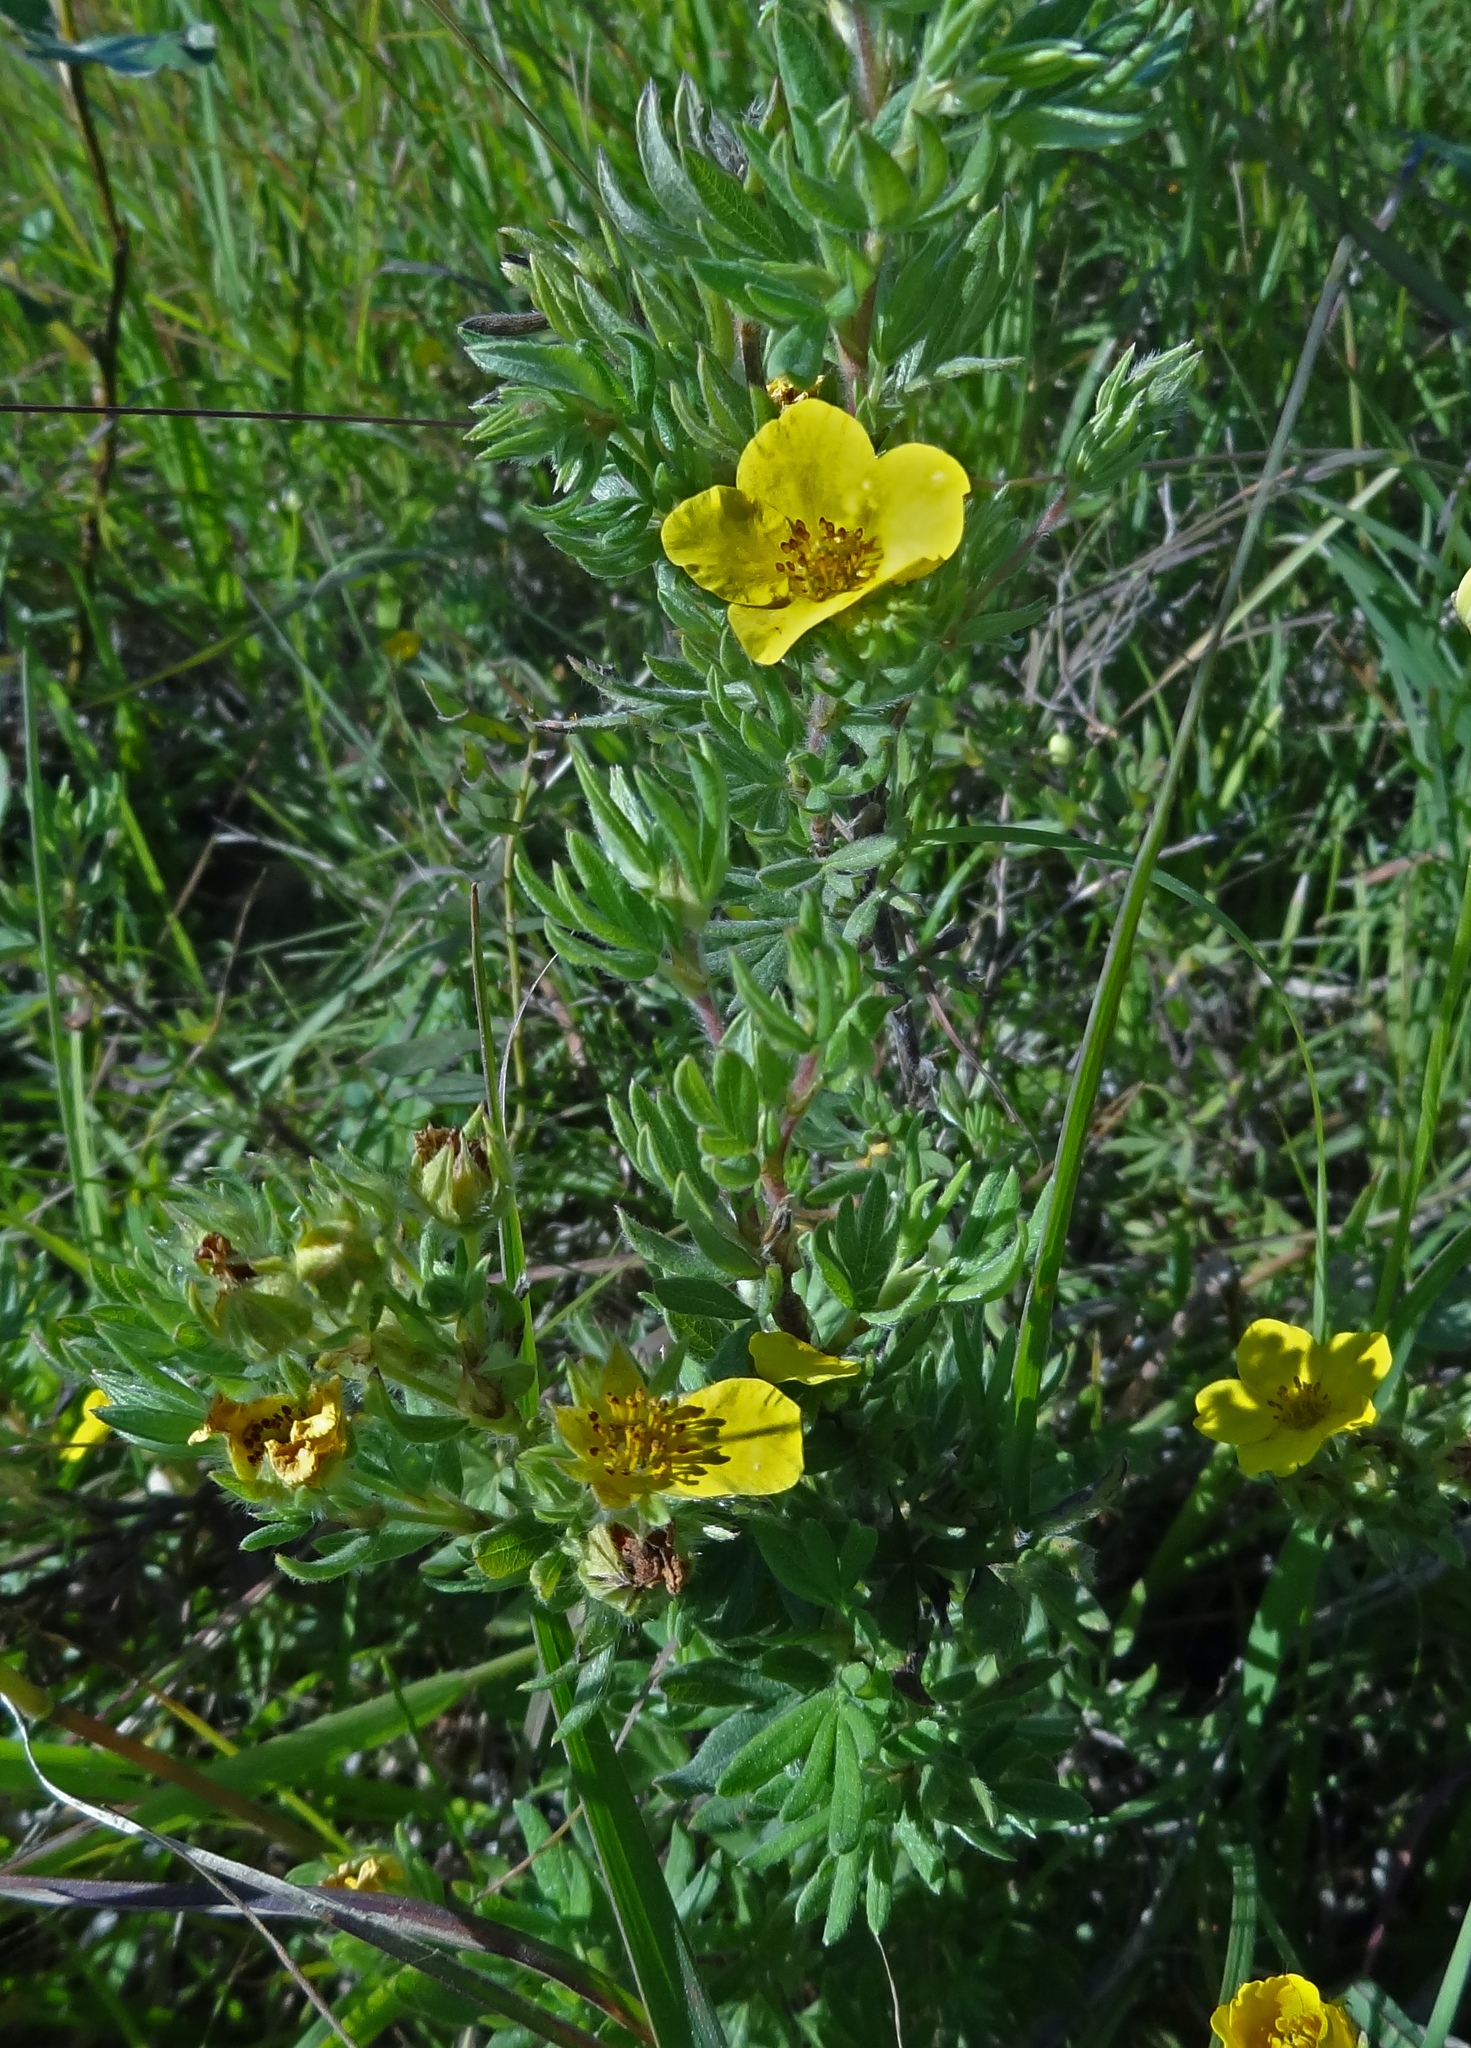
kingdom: Plantae
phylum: Tracheophyta
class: Magnoliopsida
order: Rosales
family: Rosaceae
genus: Dasiphora
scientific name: Dasiphora fruticosa
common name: Shrubby cinquefoil
